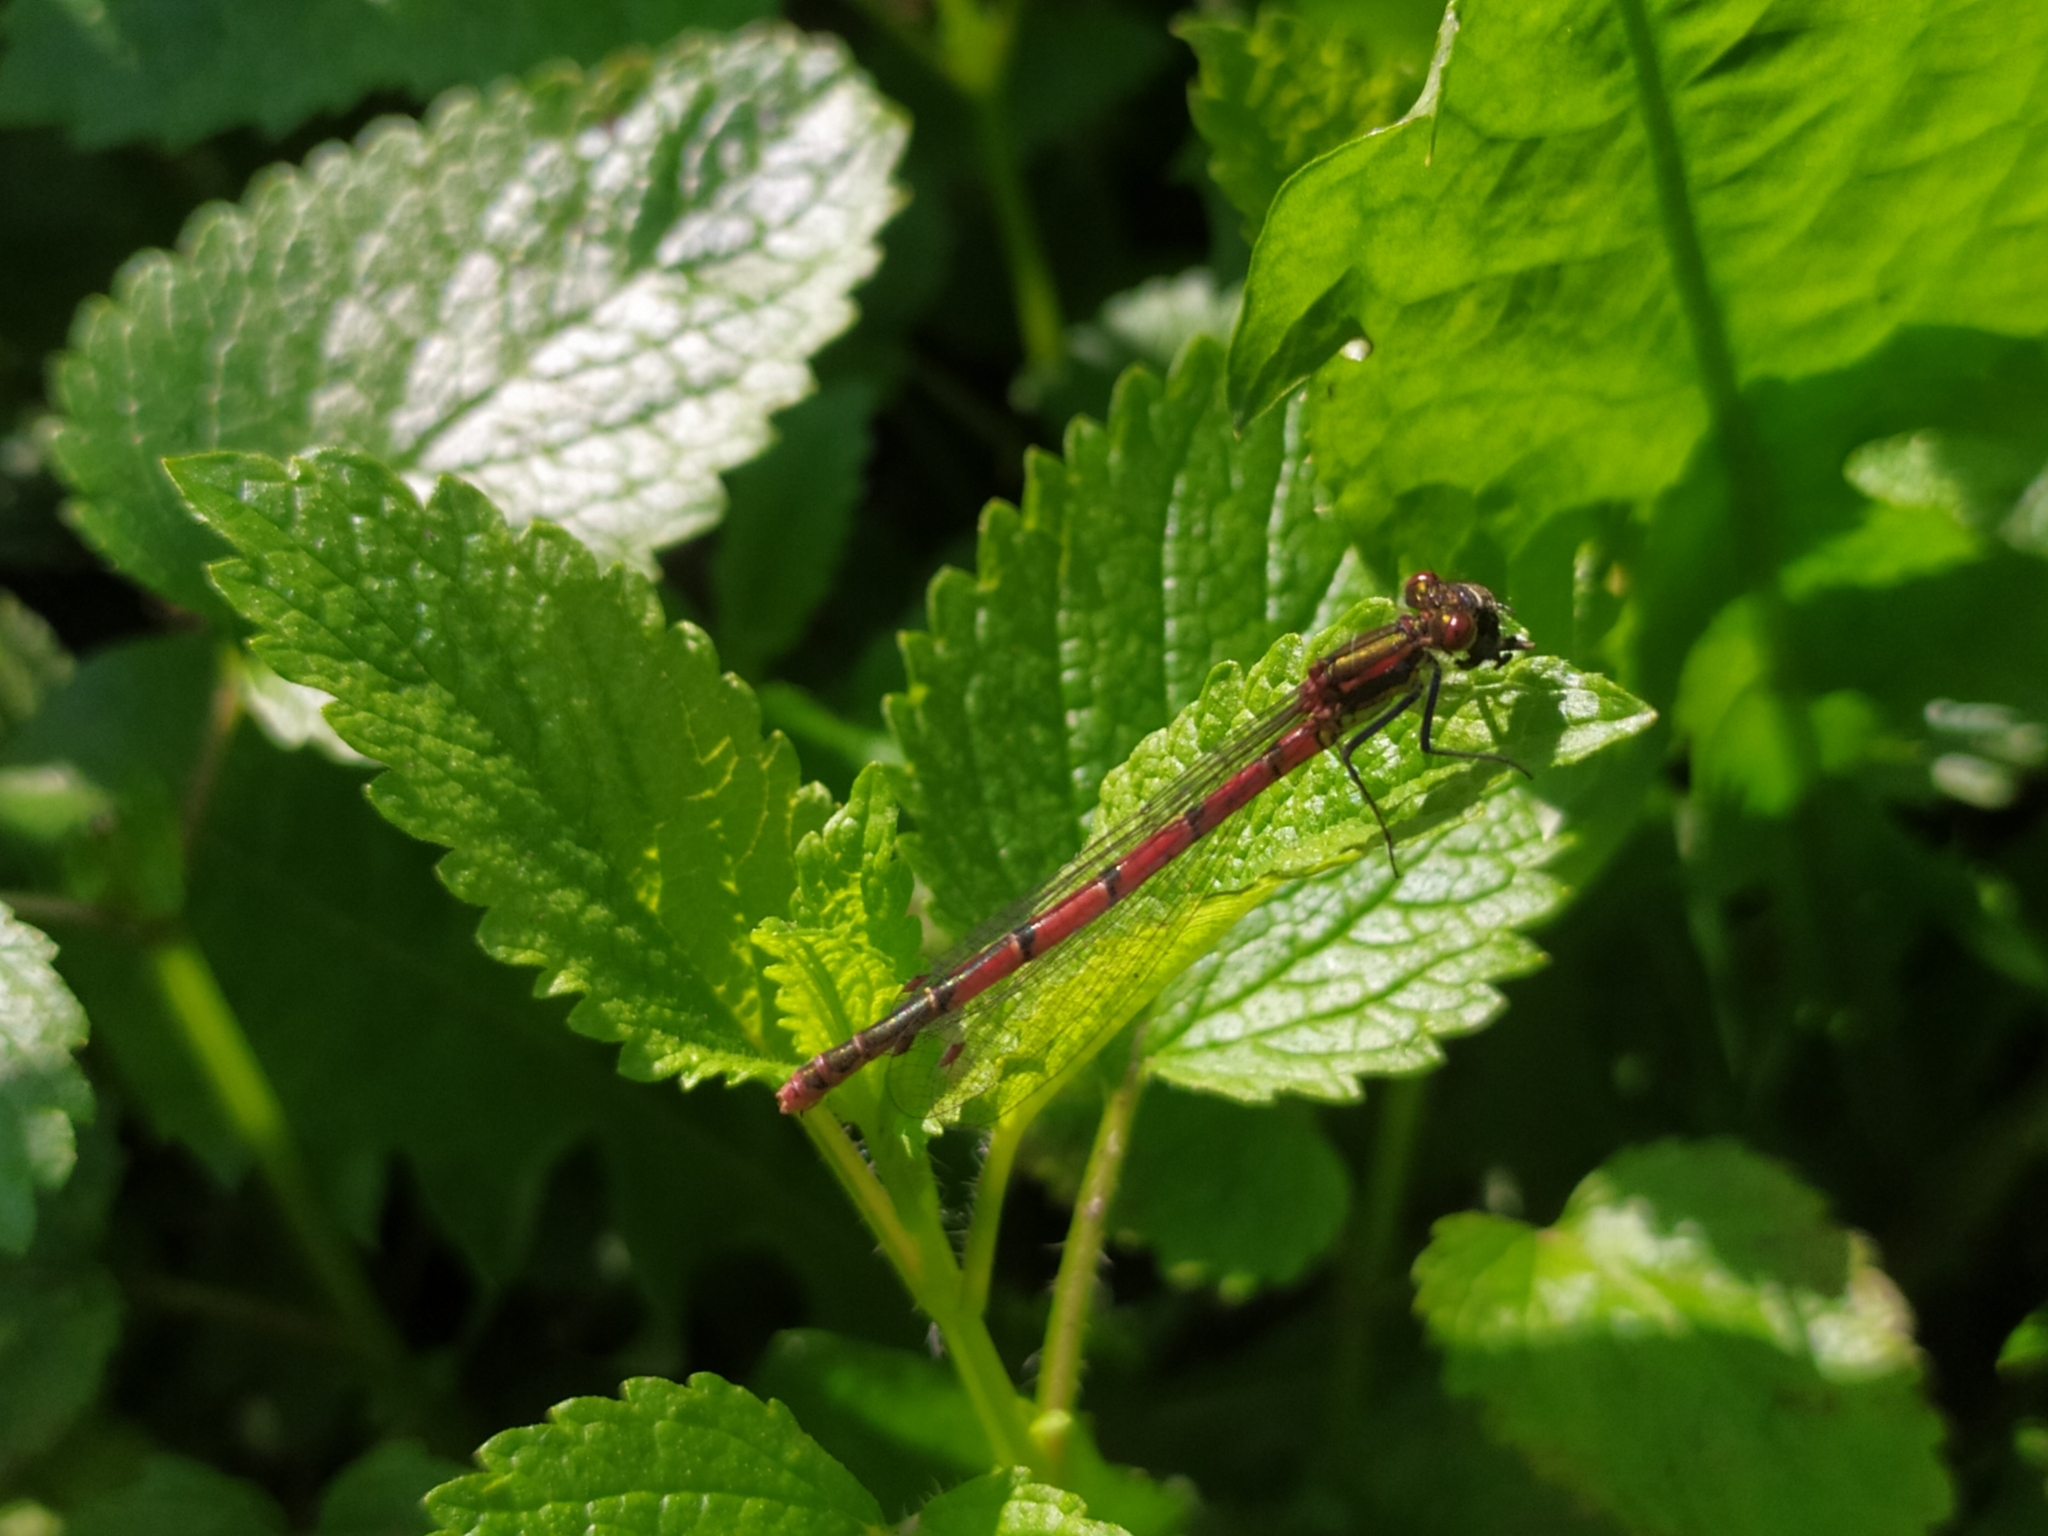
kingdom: Animalia
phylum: Arthropoda
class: Insecta
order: Odonata
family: Coenagrionidae
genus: Pyrrhosoma
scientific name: Pyrrhosoma nymphula
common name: Large red damsel
